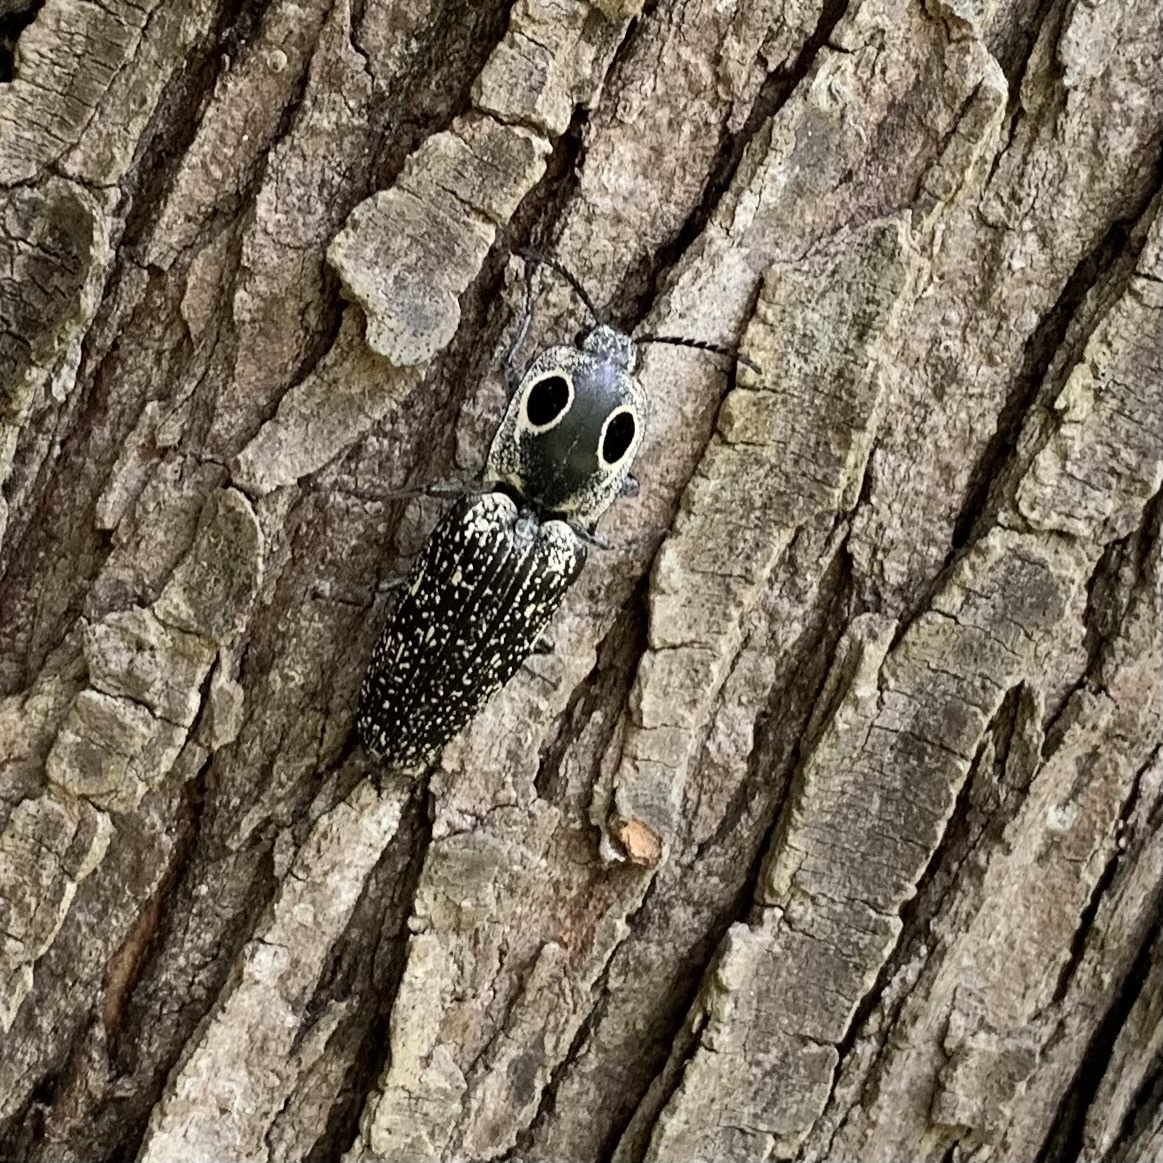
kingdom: Animalia
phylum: Arthropoda
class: Insecta
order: Coleoptera
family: Elateridae
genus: Alaus
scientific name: Alaus oculatus
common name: Eastern eyed click beetle
